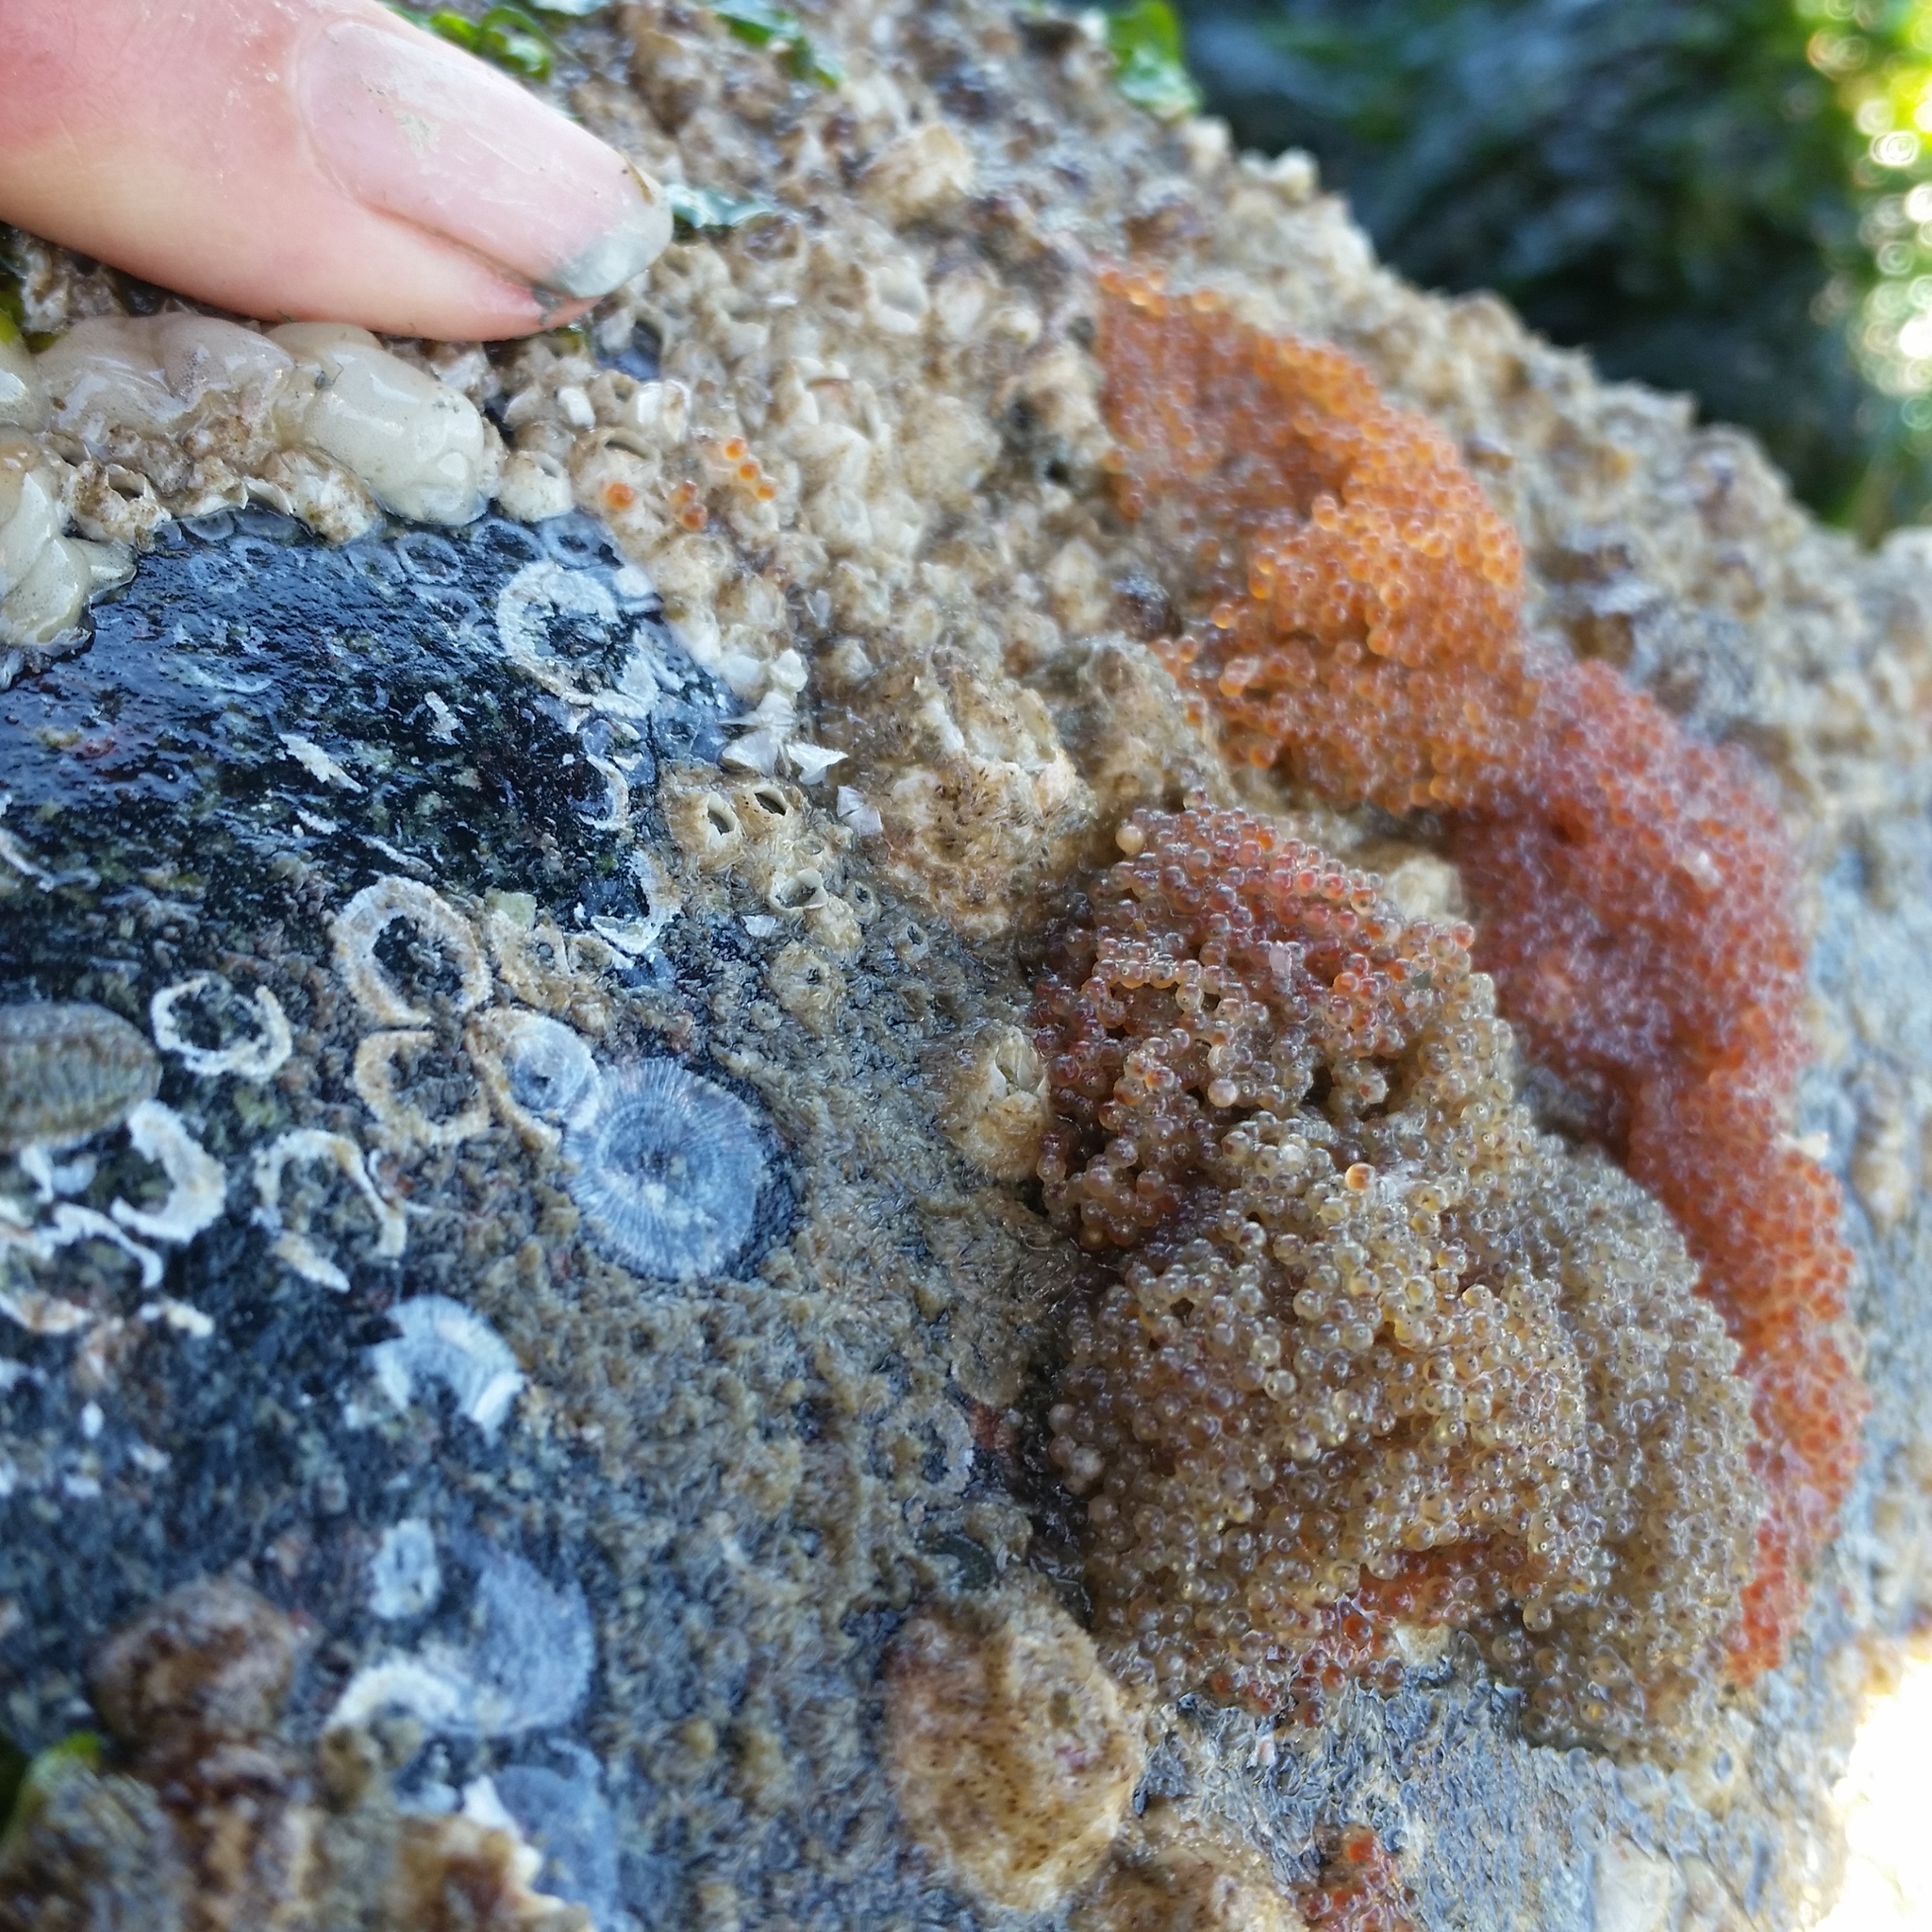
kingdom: Animalia
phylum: Chordata
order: Scorpaeniformes
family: Cottidae
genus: Artedius
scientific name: Artedius lateralis
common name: Smooth-head sculpin
